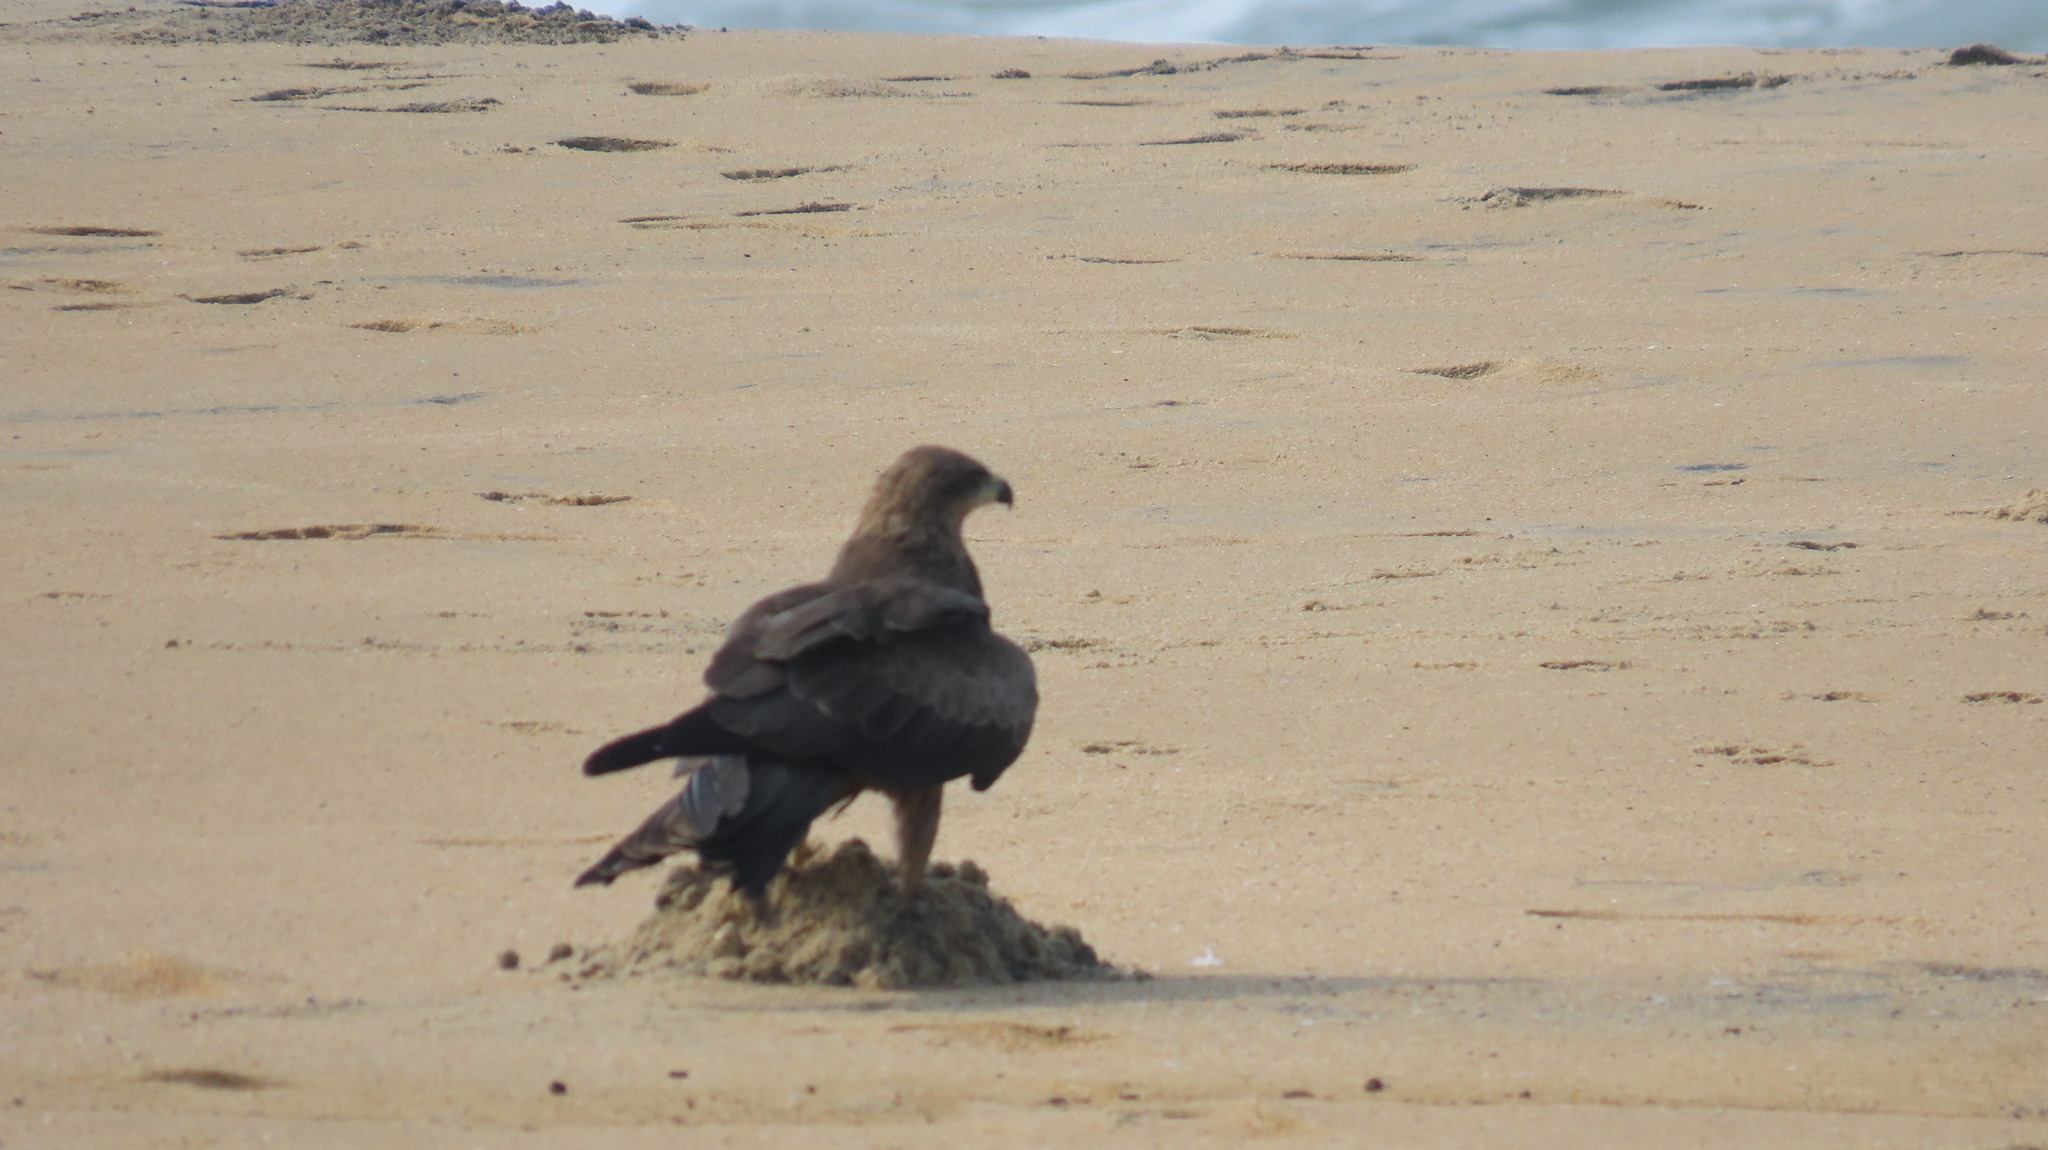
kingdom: Animalia
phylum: Chordata
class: Aves
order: Accipitriformes
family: Accipitridae
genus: Milvus
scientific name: Milvus migrans
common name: Black kite
